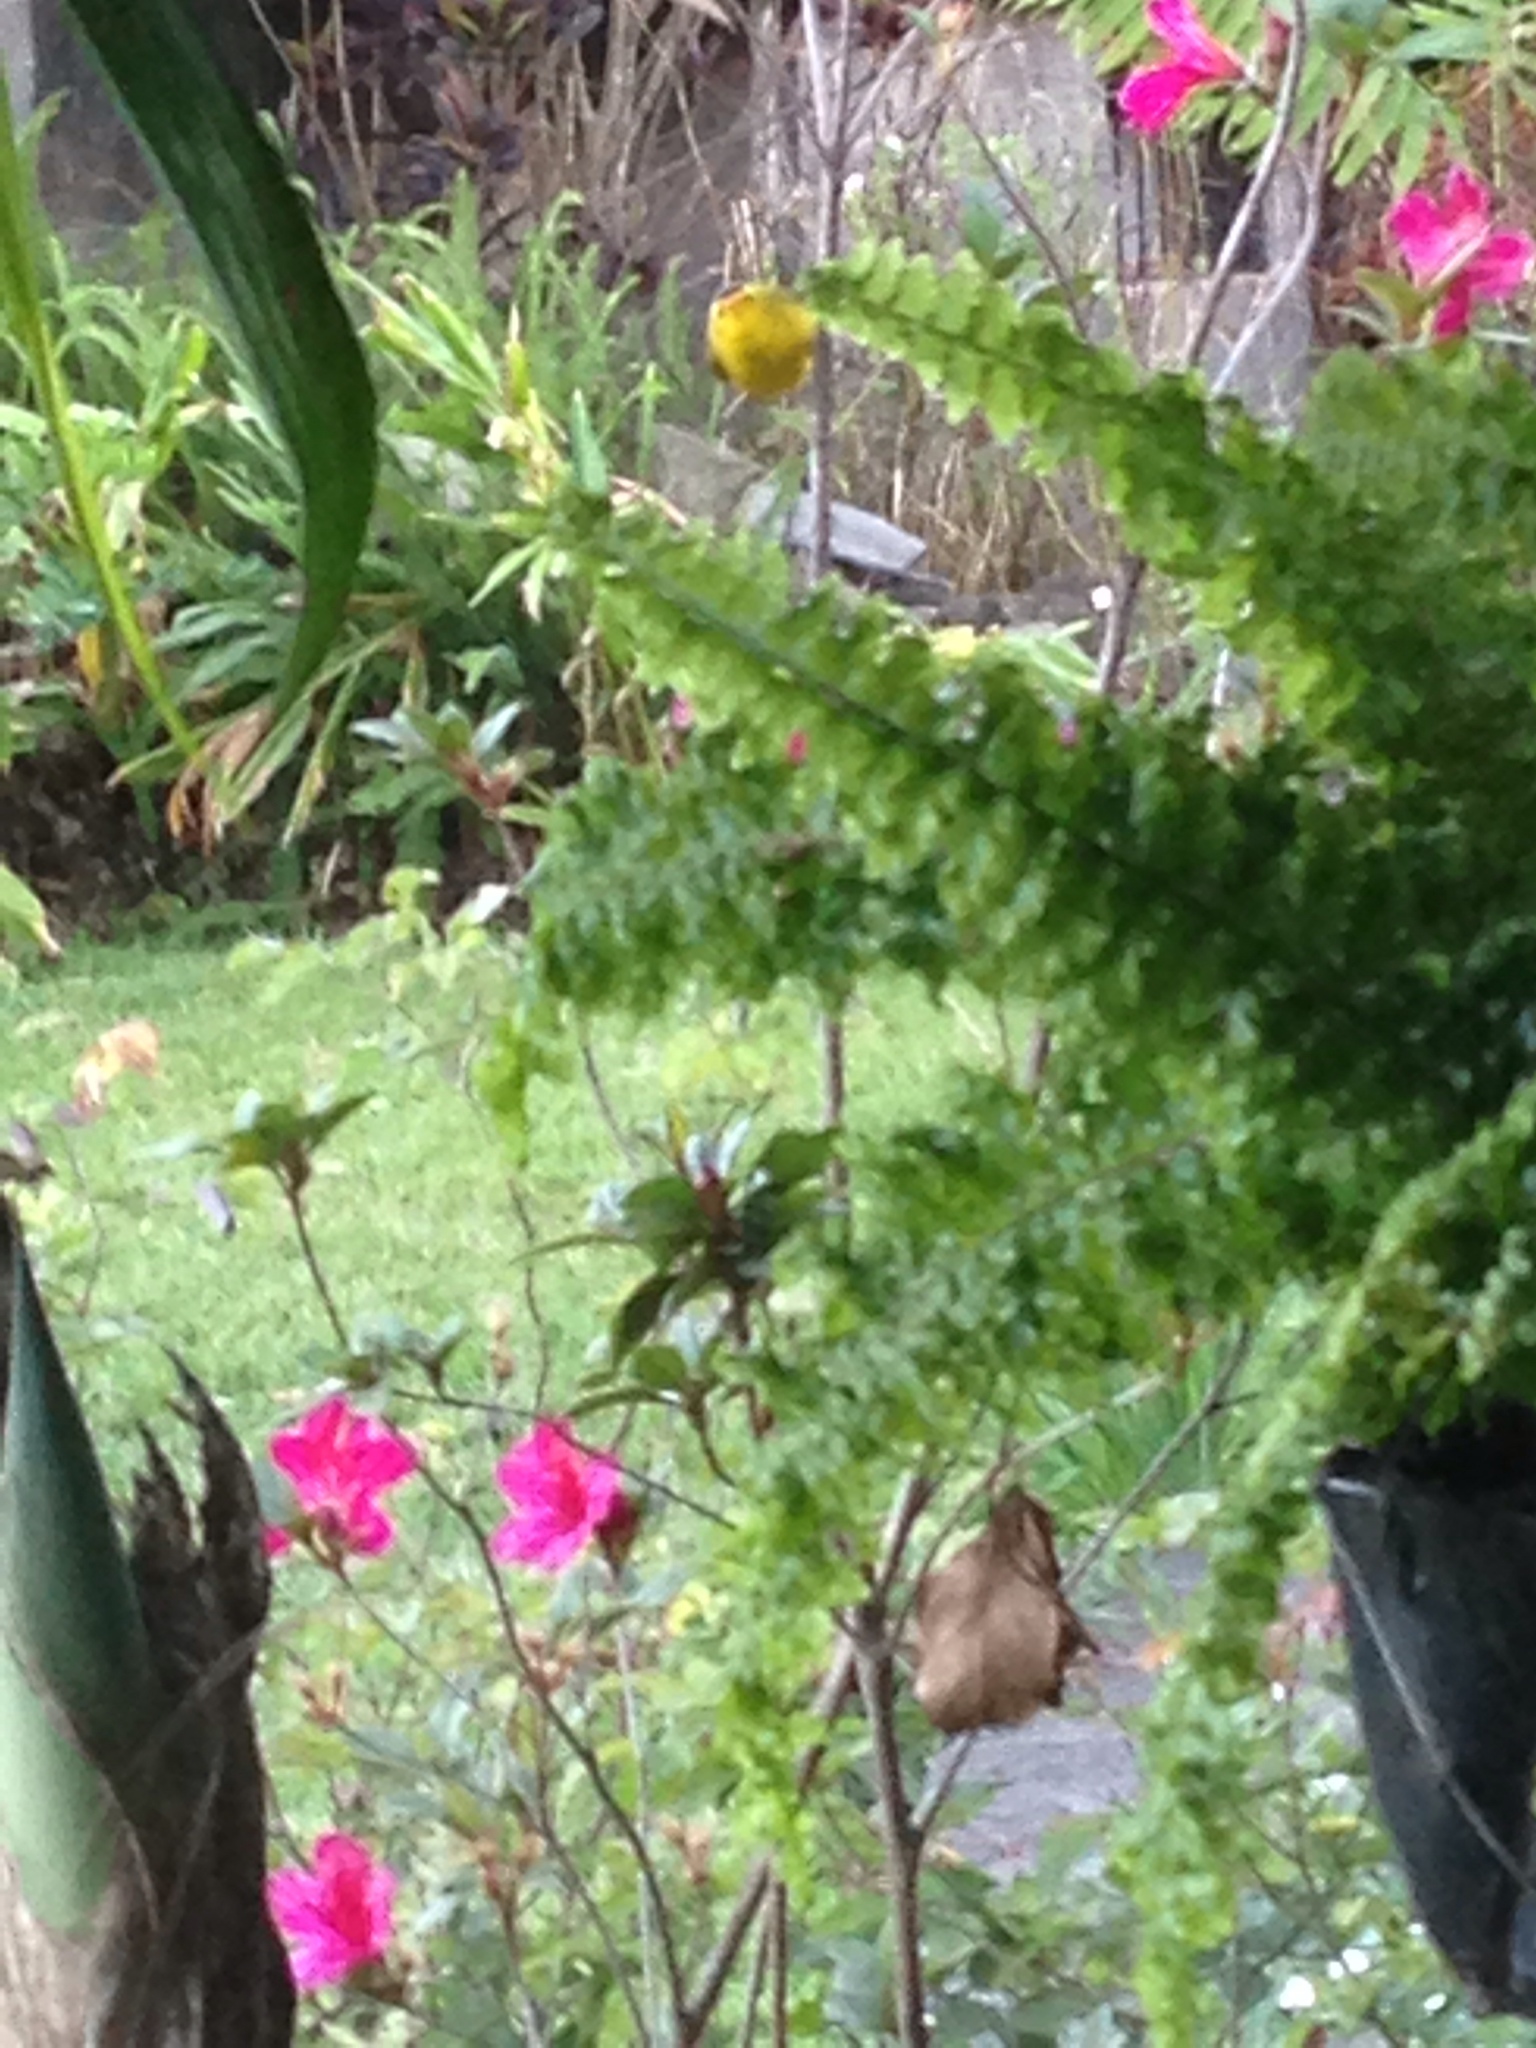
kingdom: Animalia
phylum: Chordata
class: Aves
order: Passeriformes
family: Parulidae
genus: Cardellina
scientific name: Cardellina pusilla
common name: Wilson's warbler
